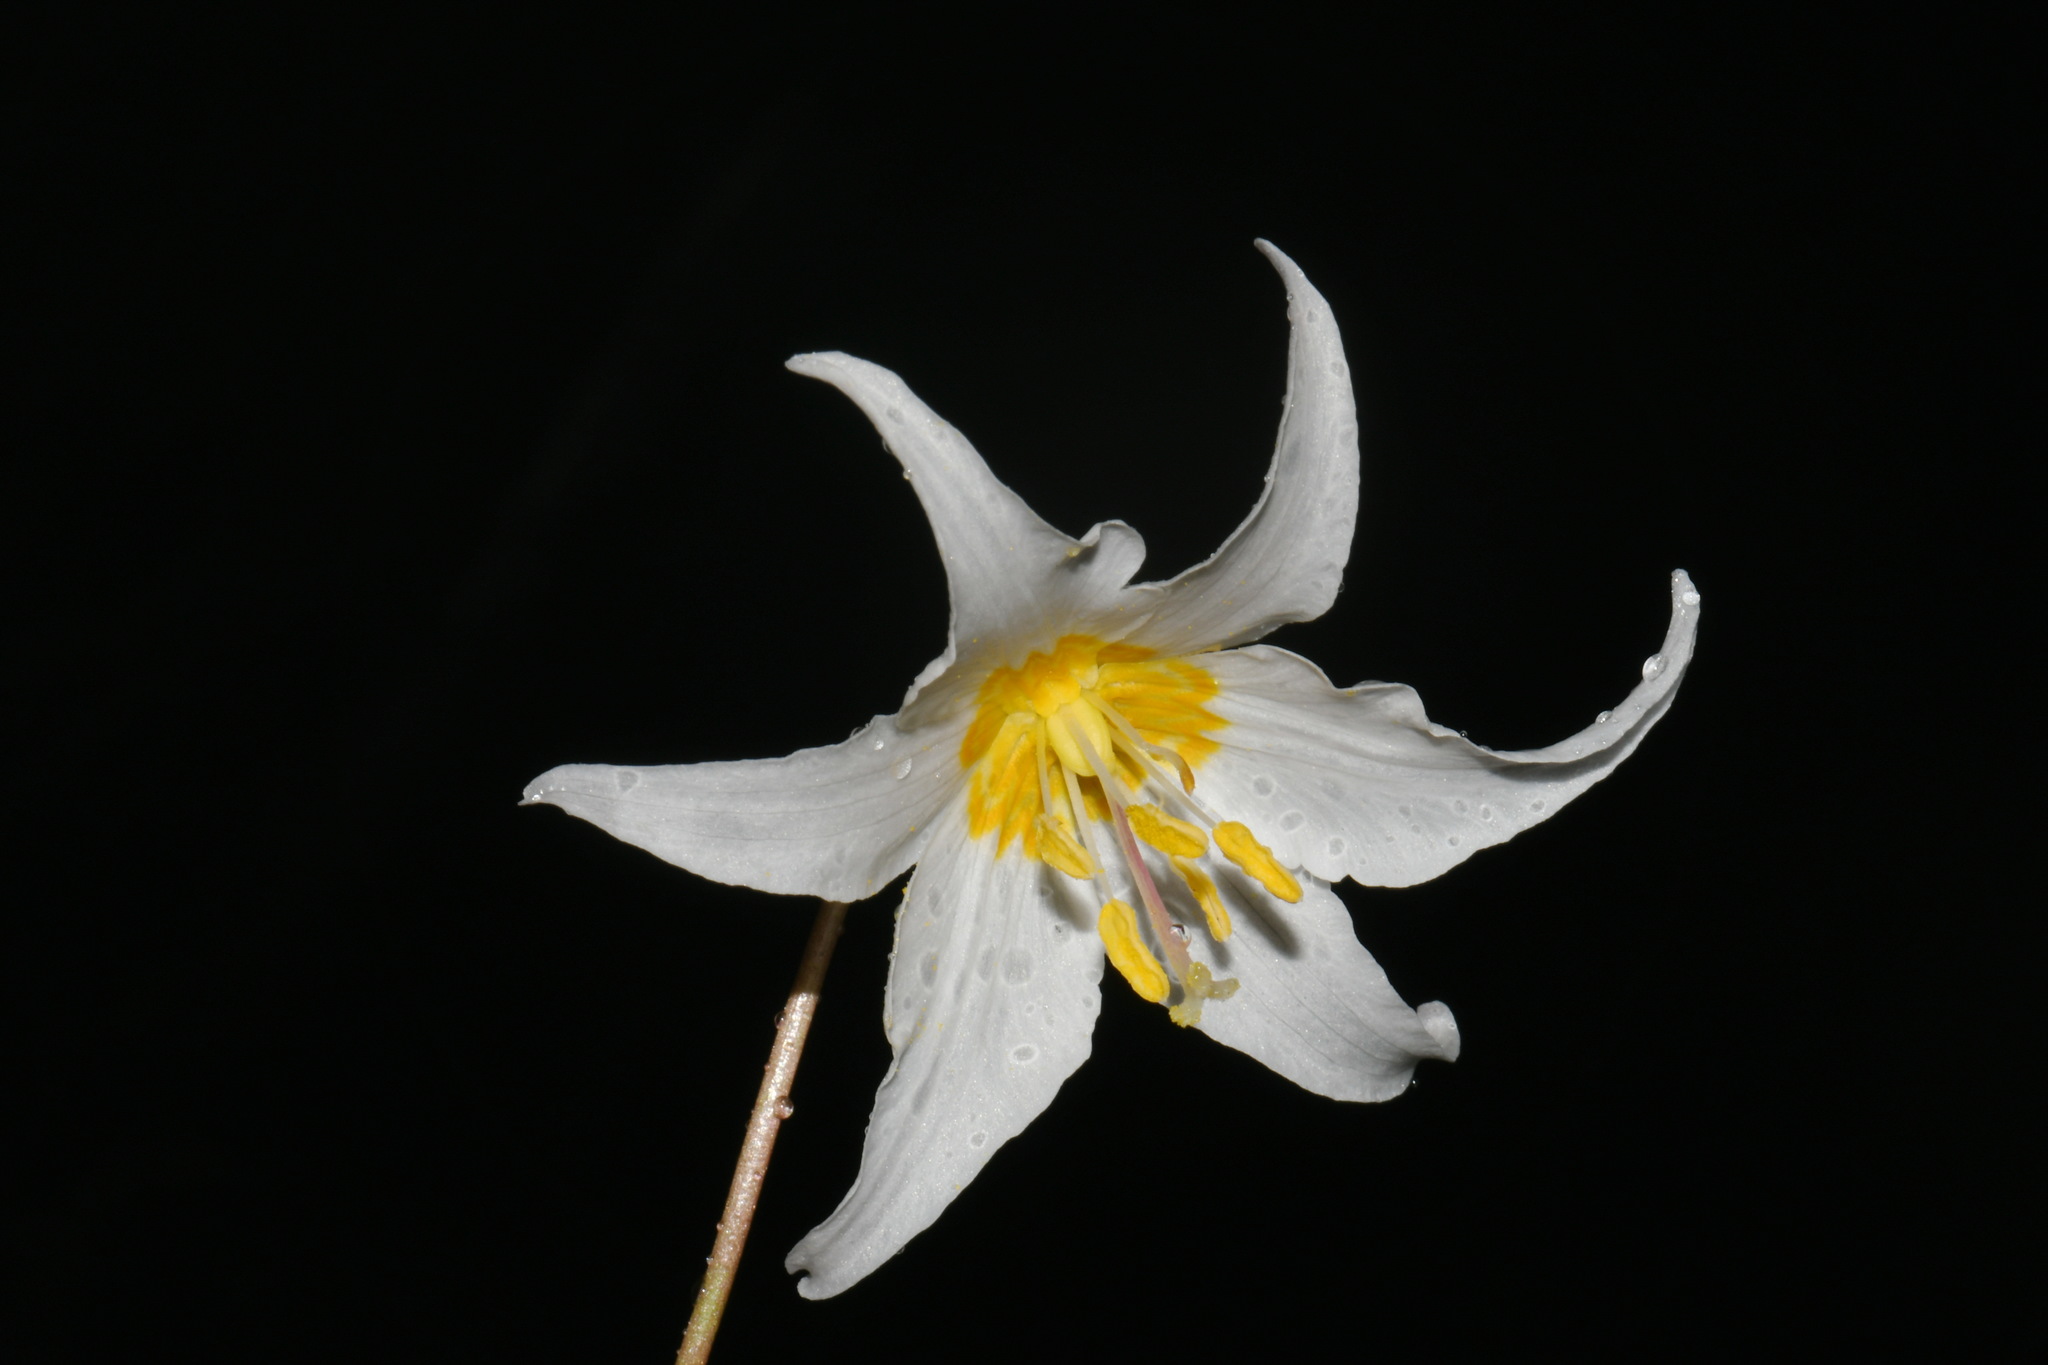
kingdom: Plantae
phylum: Tracheophyta
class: Liliopsida
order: Liliales
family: Liliaceae
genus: Erythronium
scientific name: Erythronium montanum
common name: Avalanche lily
